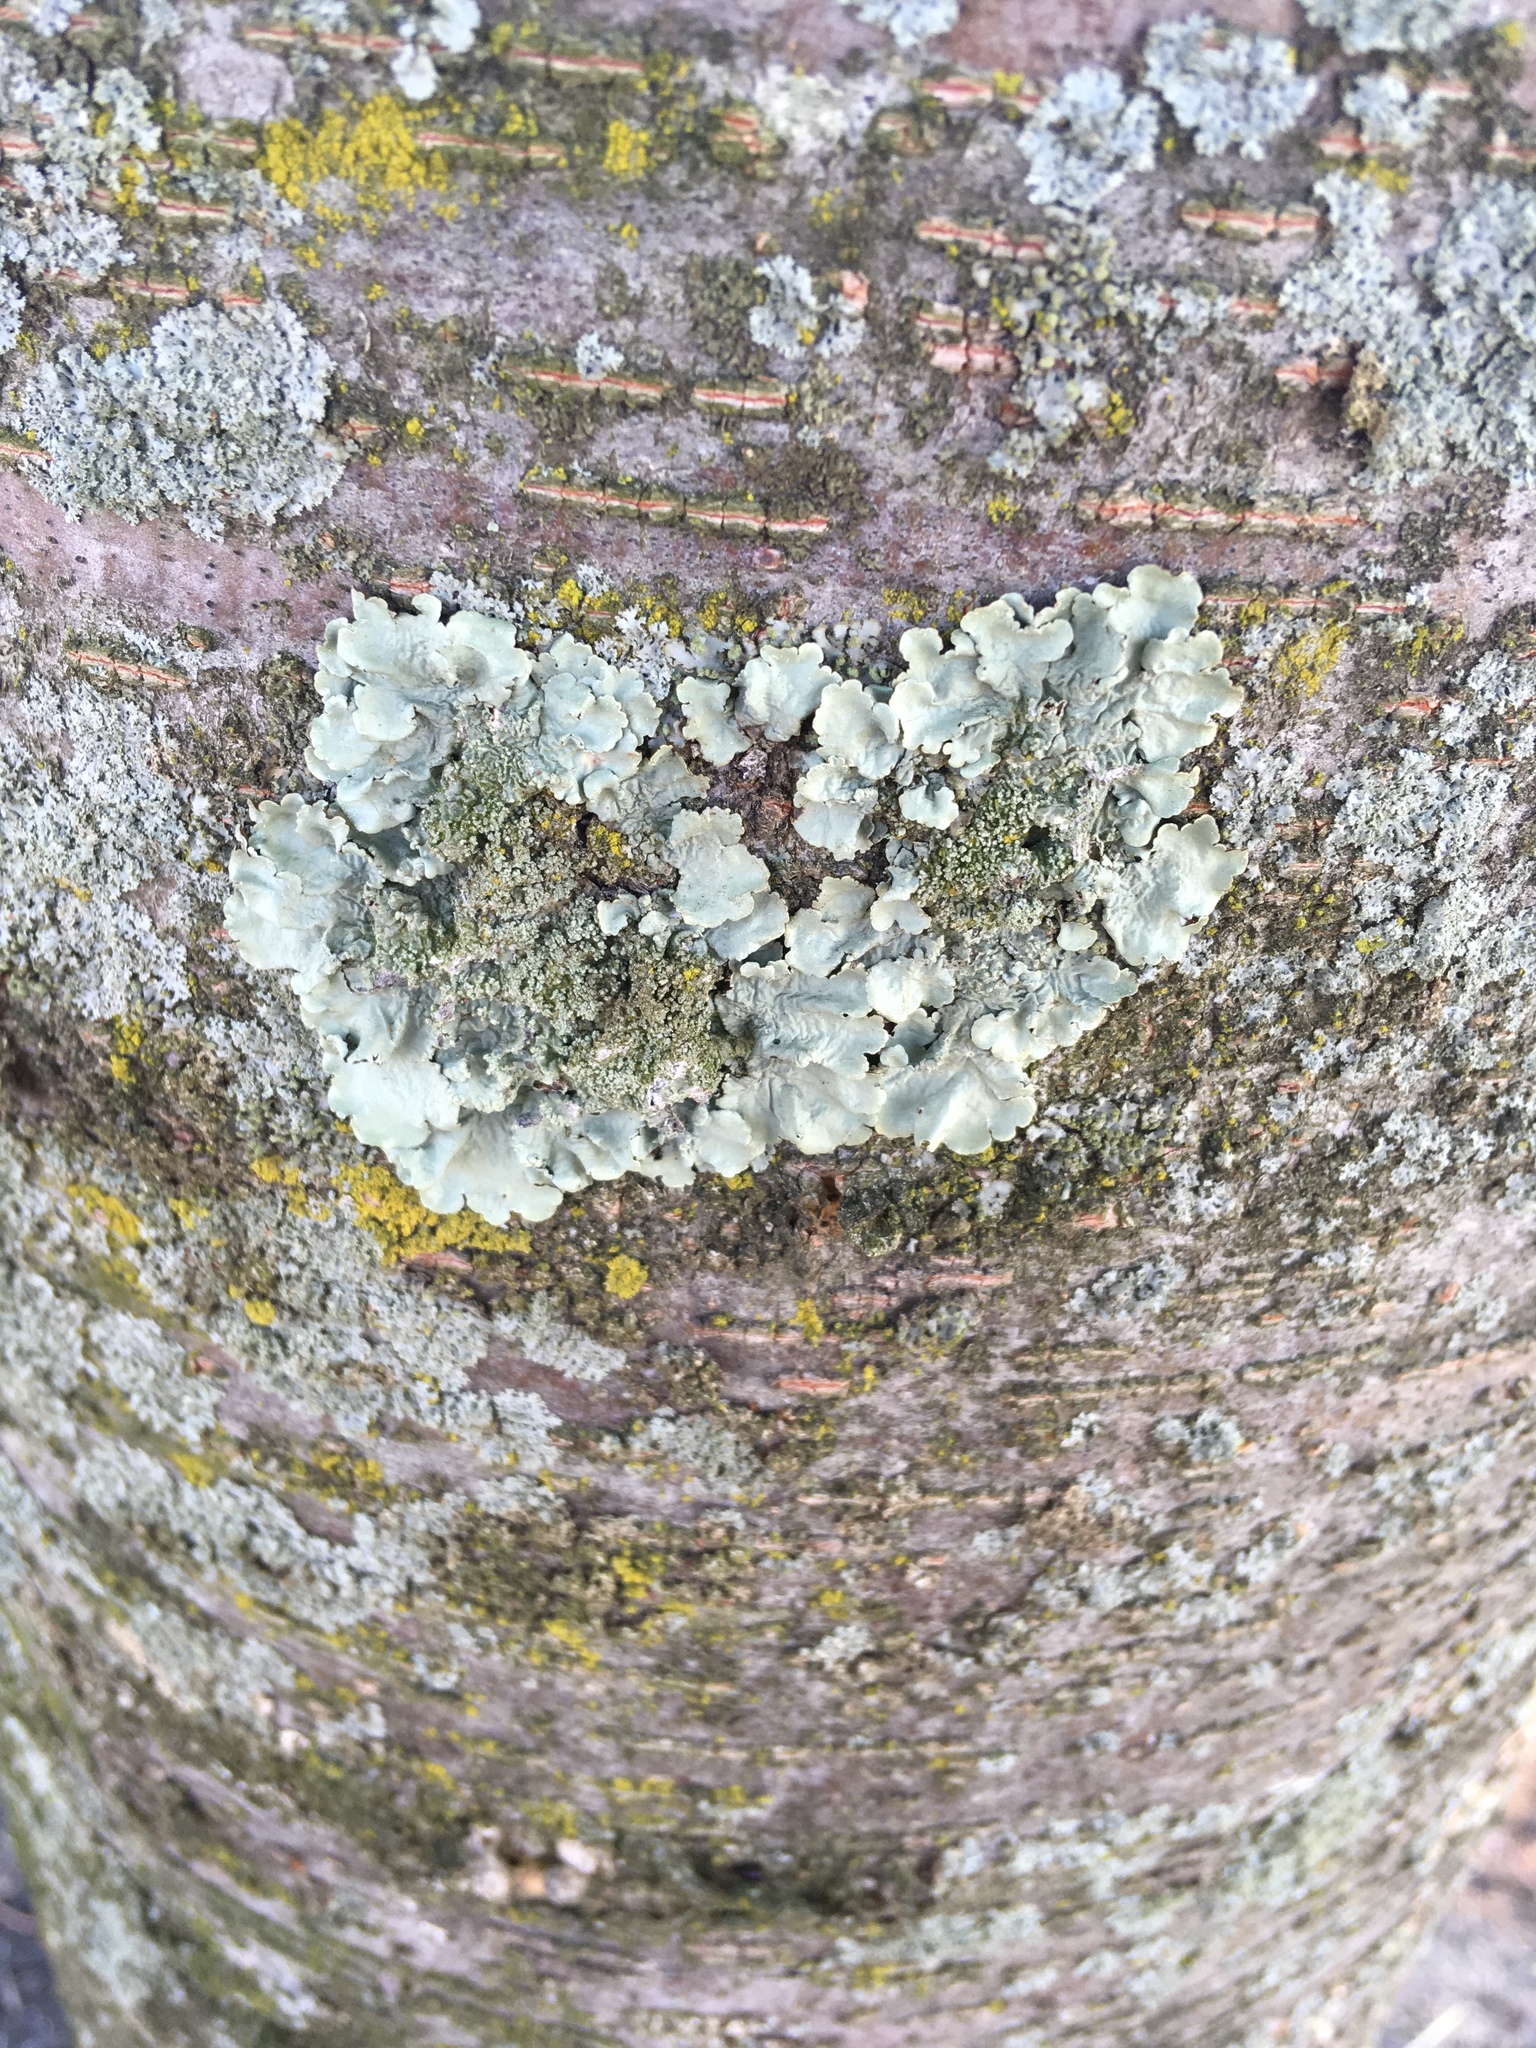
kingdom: Fungi
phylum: Ascomycota
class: Lecanoromycetes
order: Lecanorales
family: Parmeliaceae
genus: Flavoparmelia
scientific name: Flavoparmelia caperata
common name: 40-mile per hour lichen
